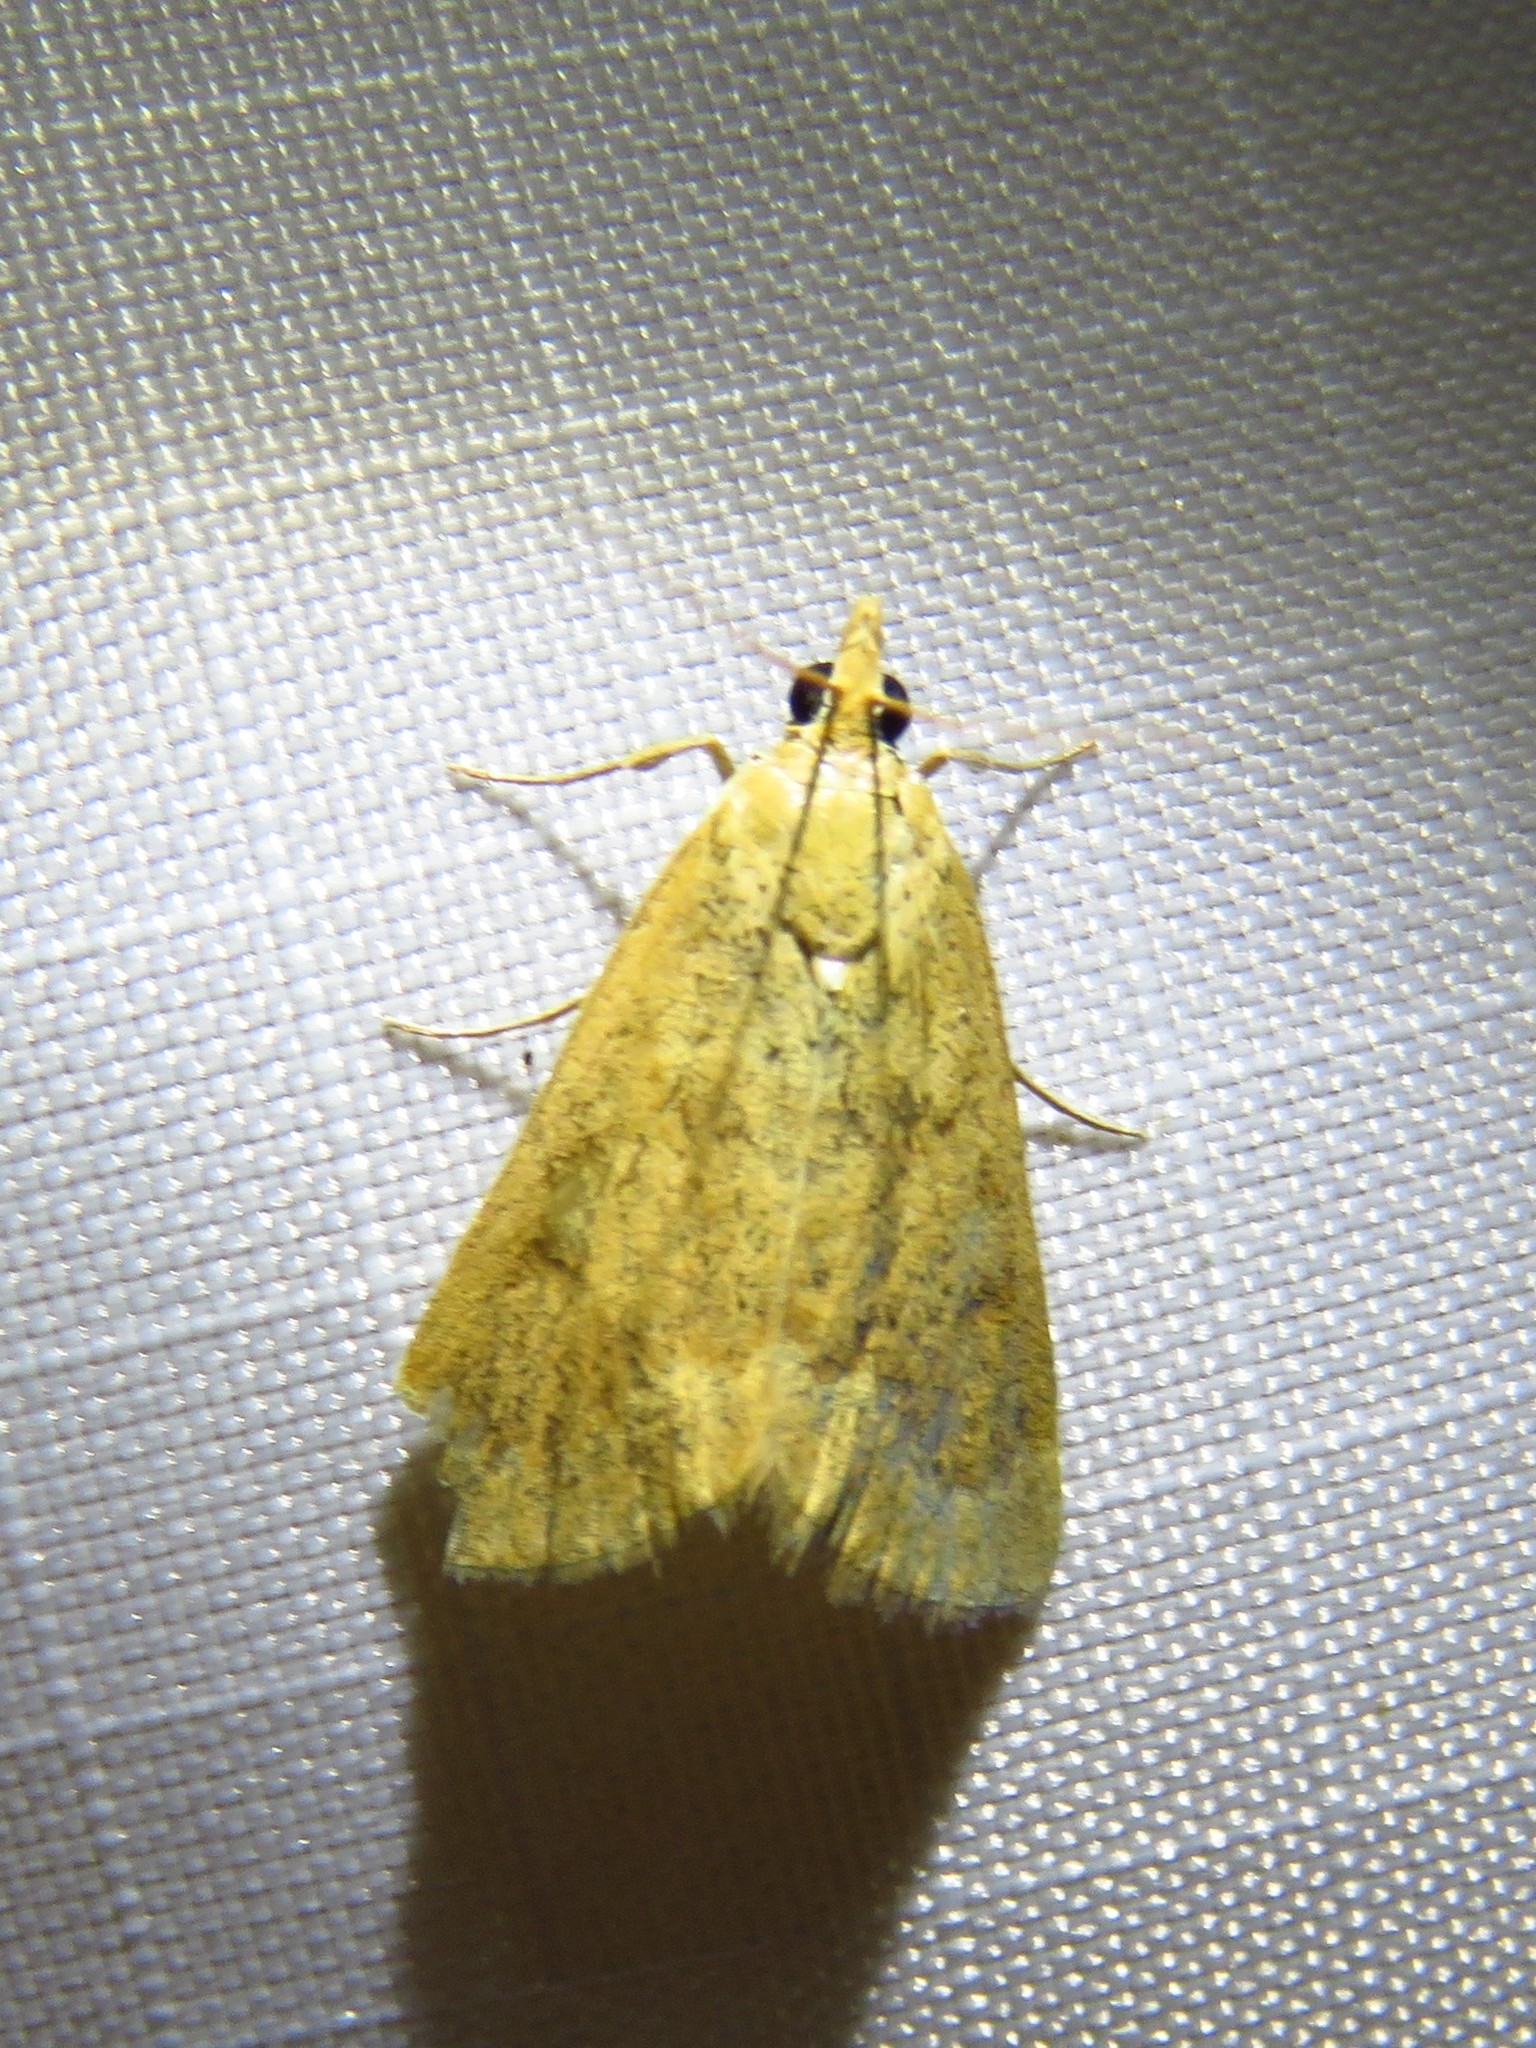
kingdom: Animalia
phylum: Arthropoda
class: Insecta
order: Lepidoptera
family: Crambidae
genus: Achyra
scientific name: Achyra rantalis
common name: Garden webworm
